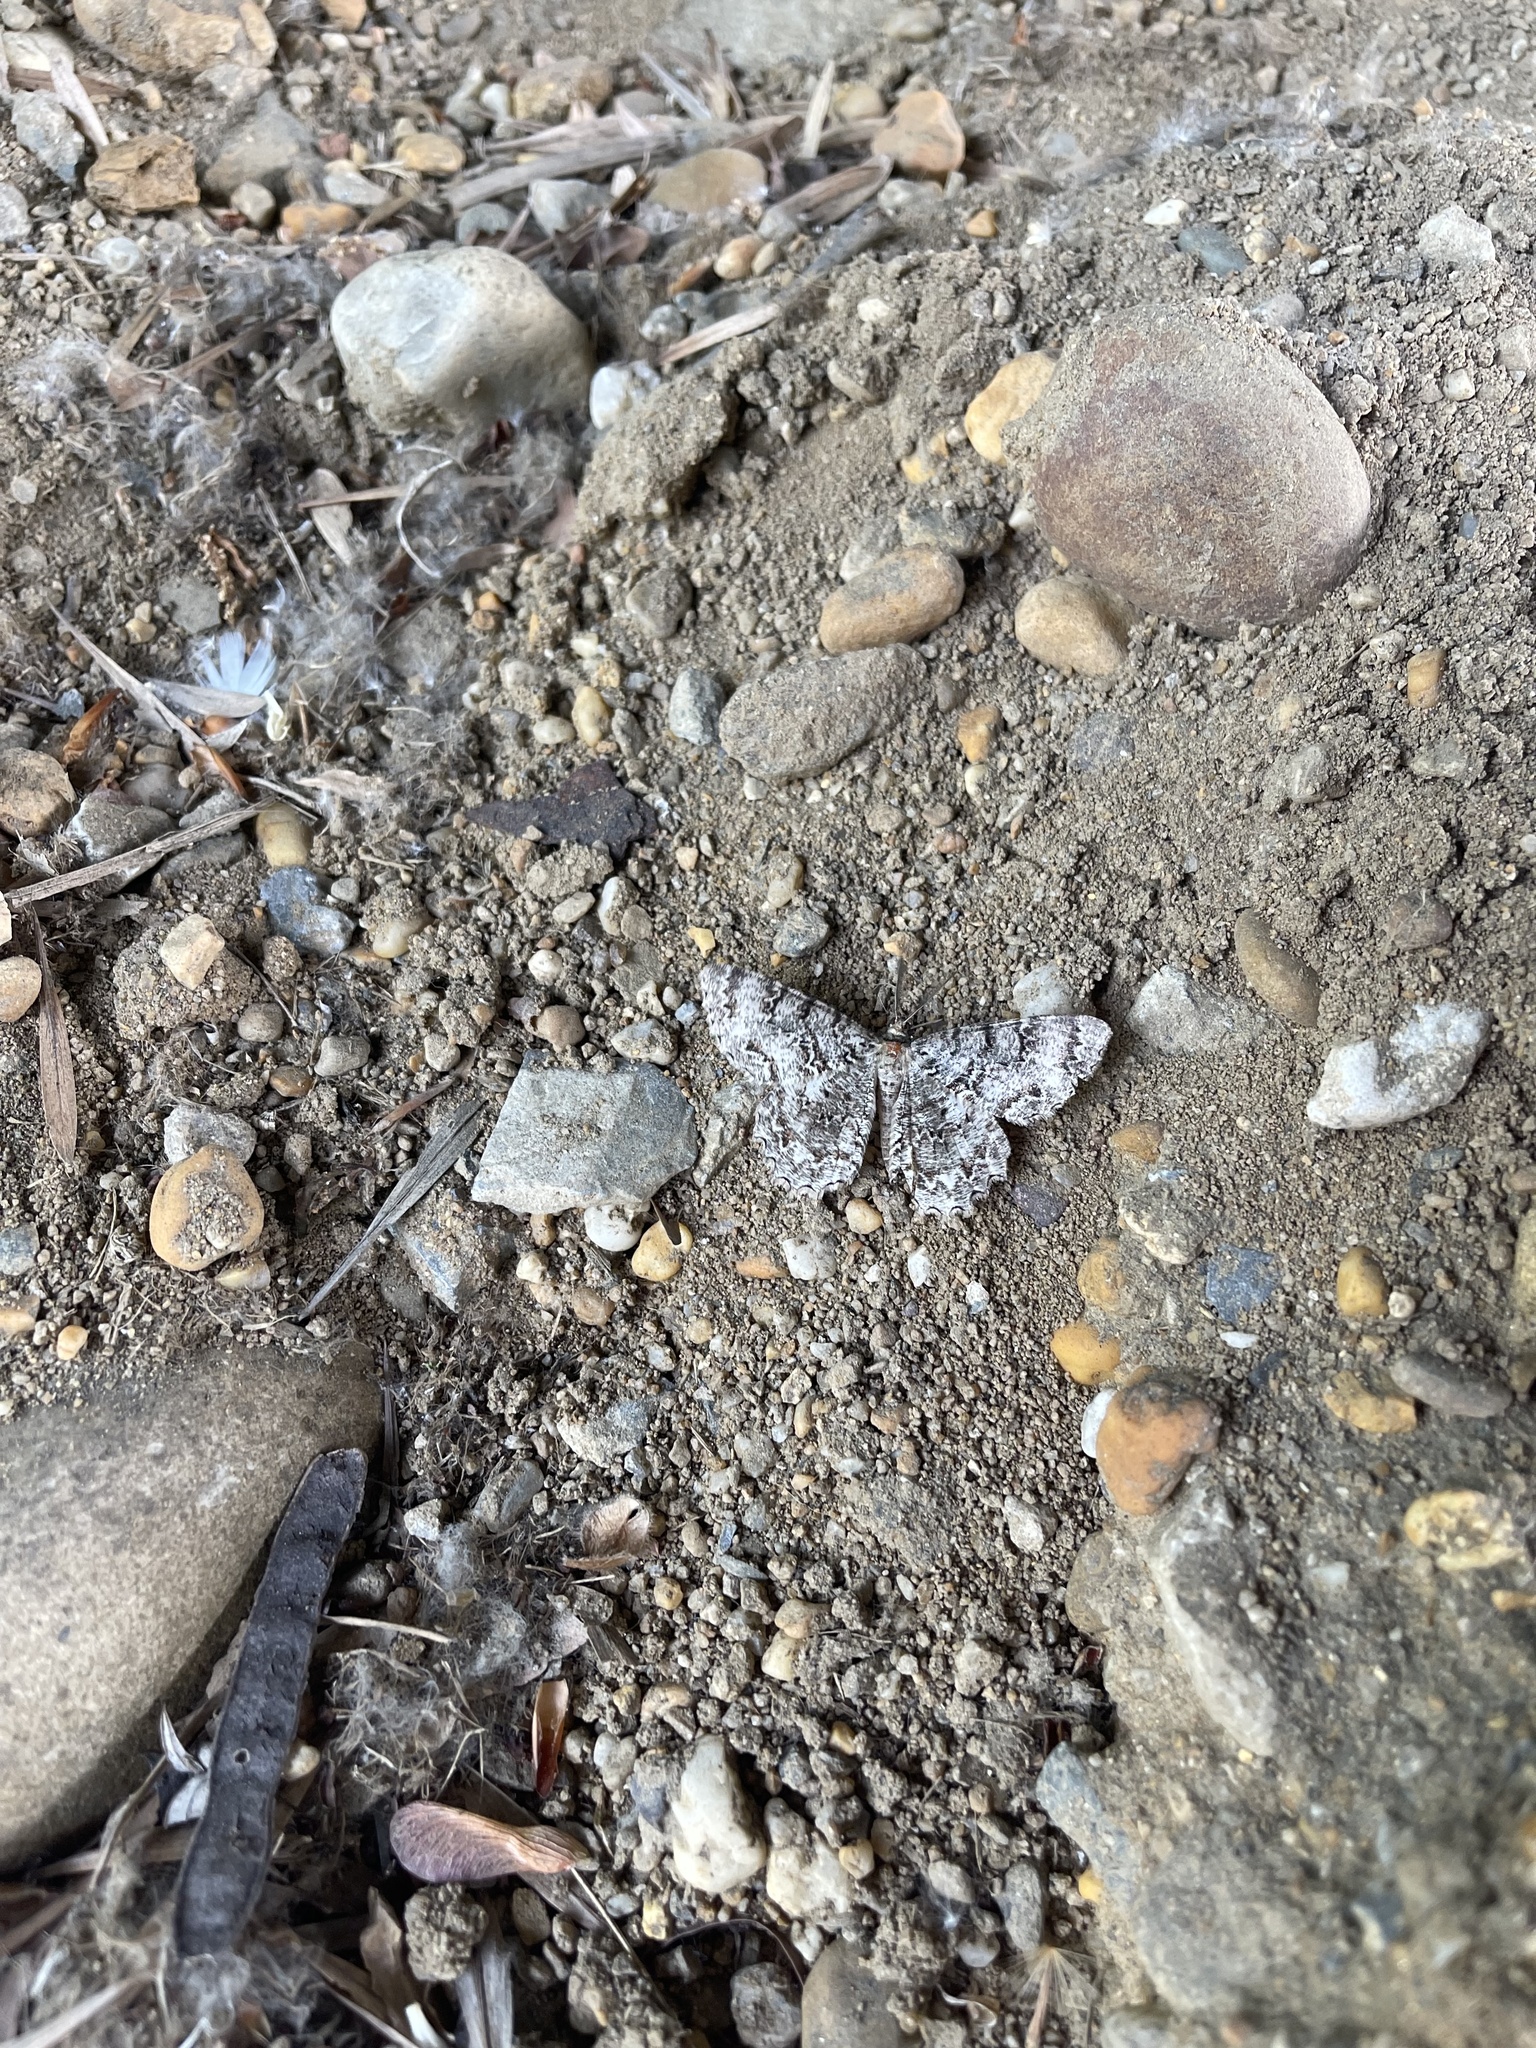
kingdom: Animalia
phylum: Arthropoda
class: Insecta
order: Lepidoptera
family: Geometridae
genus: Epimecis
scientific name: Epimecis hortaria
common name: Tulip-tree beauty
